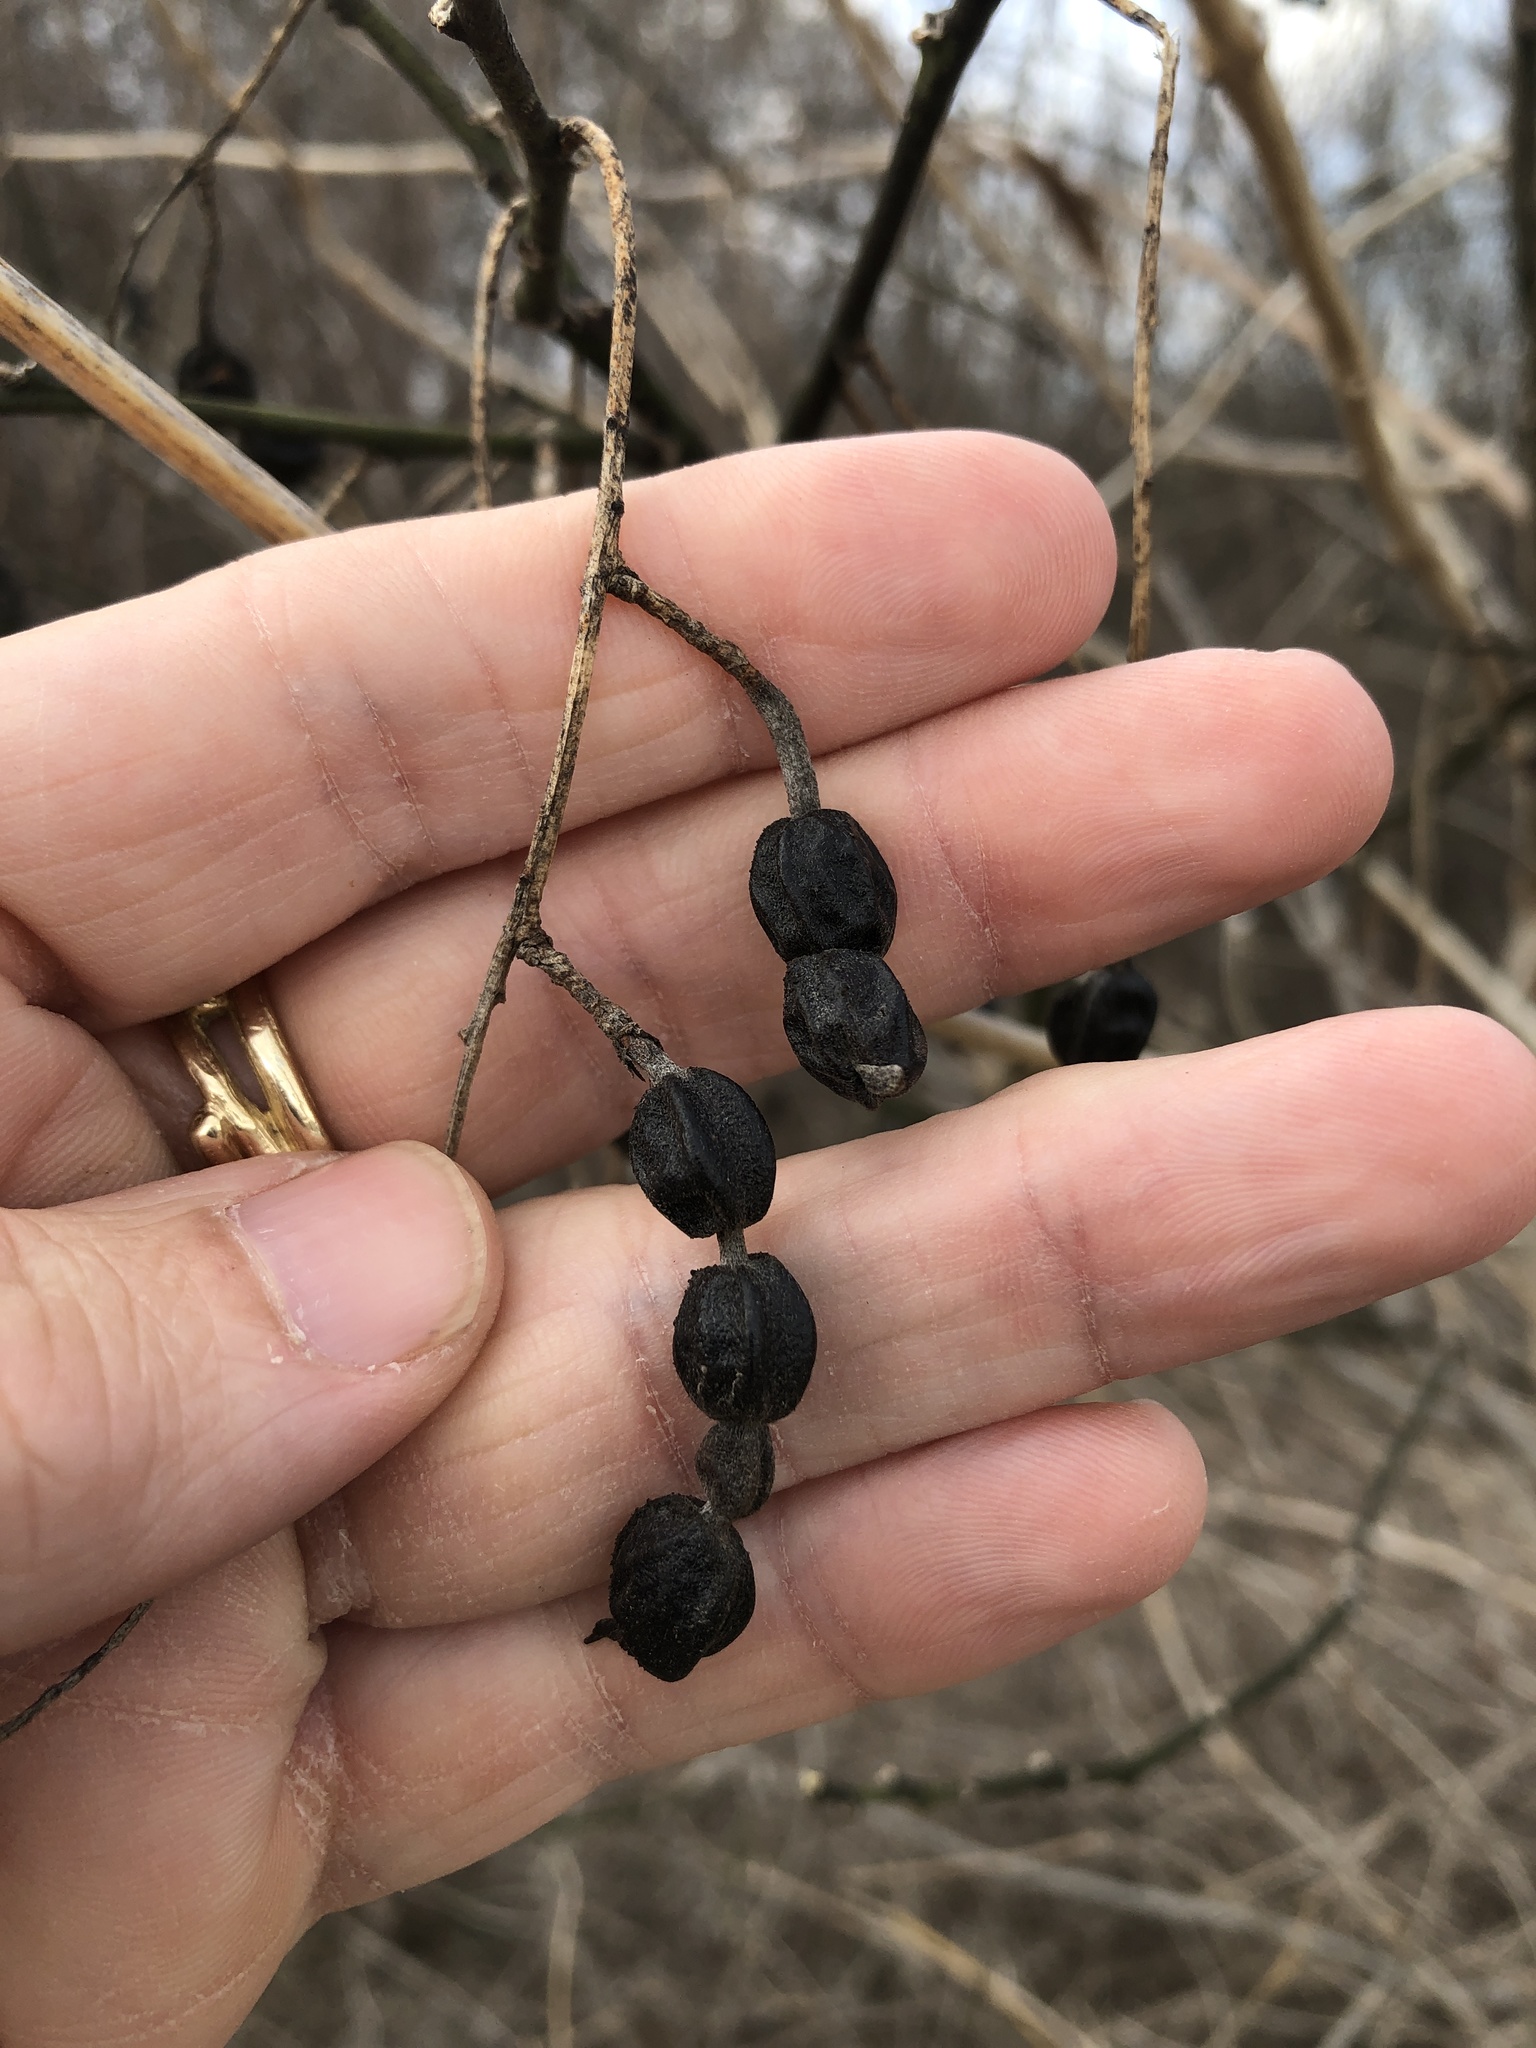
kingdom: Plantae
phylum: Tracheophyta
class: Magnoliopsida
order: Fabales
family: Fabaceae
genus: Styphnolobium
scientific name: Styphnolobium affine
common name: Texas sophora
